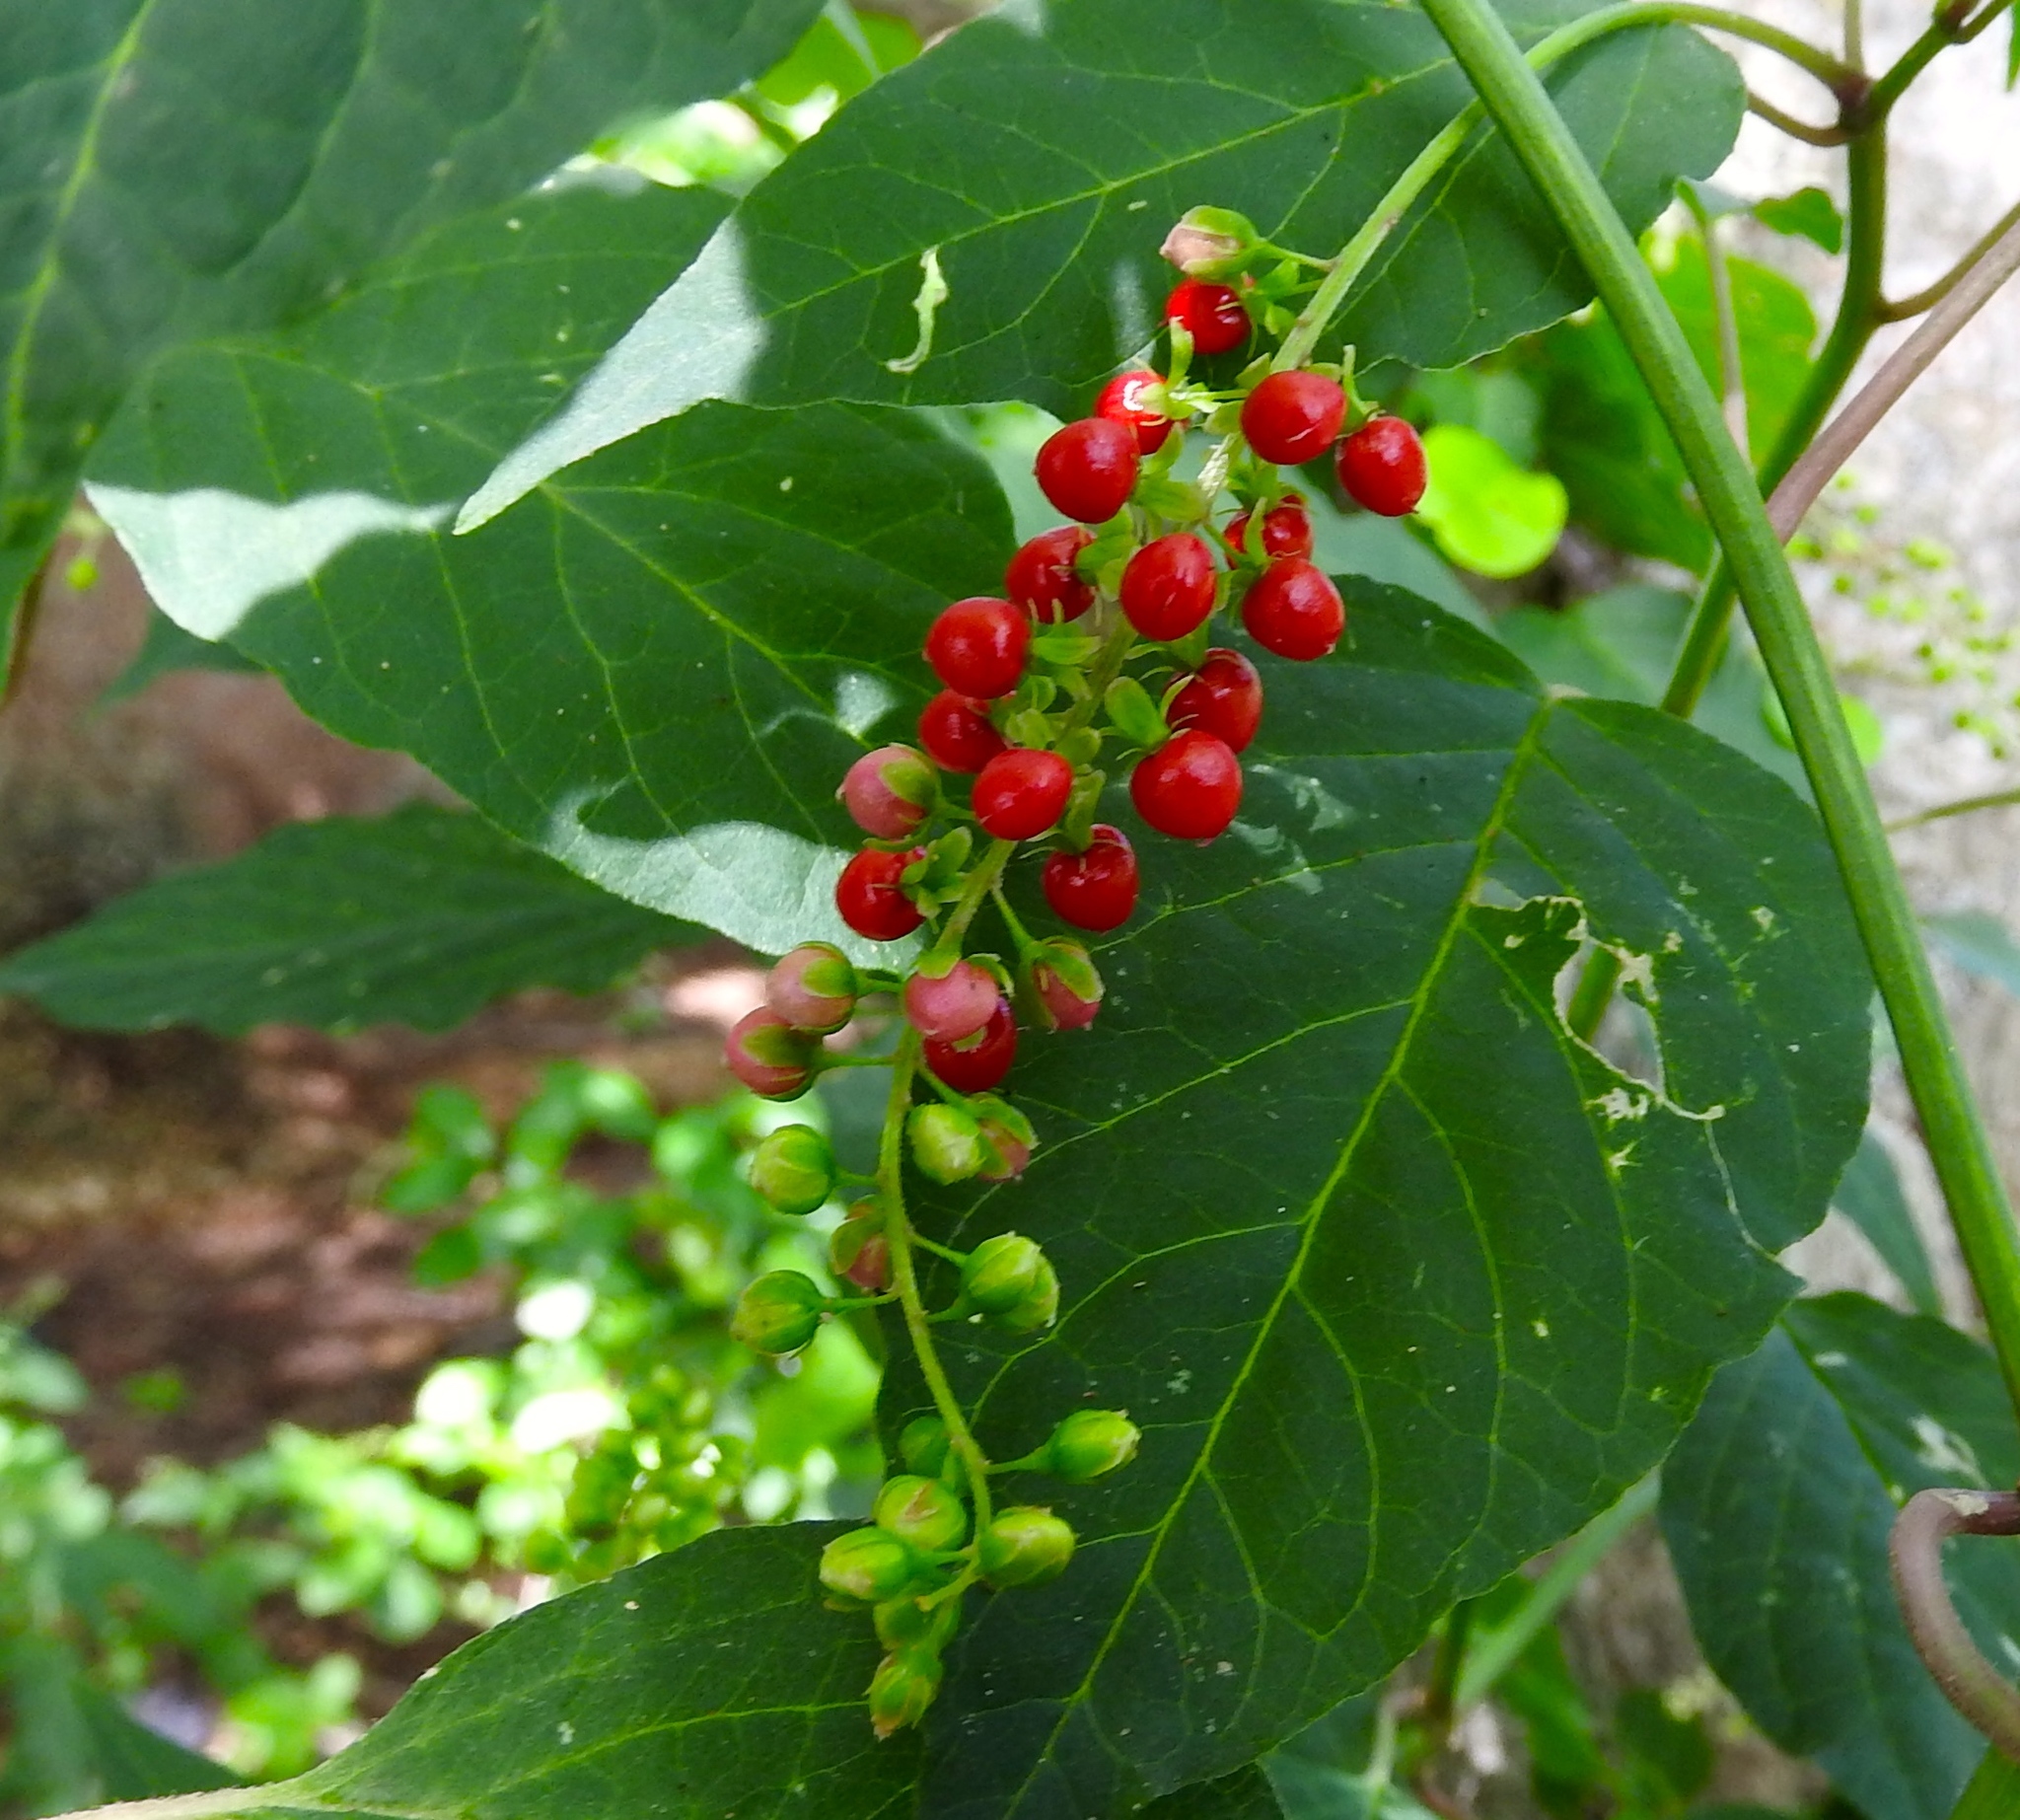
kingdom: Plantae
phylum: Tracheophyta
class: Magnoliopsida
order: Caryophyllales
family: Phytolaccaceae
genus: Rivina
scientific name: Rivina humilis
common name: Rougeplant
